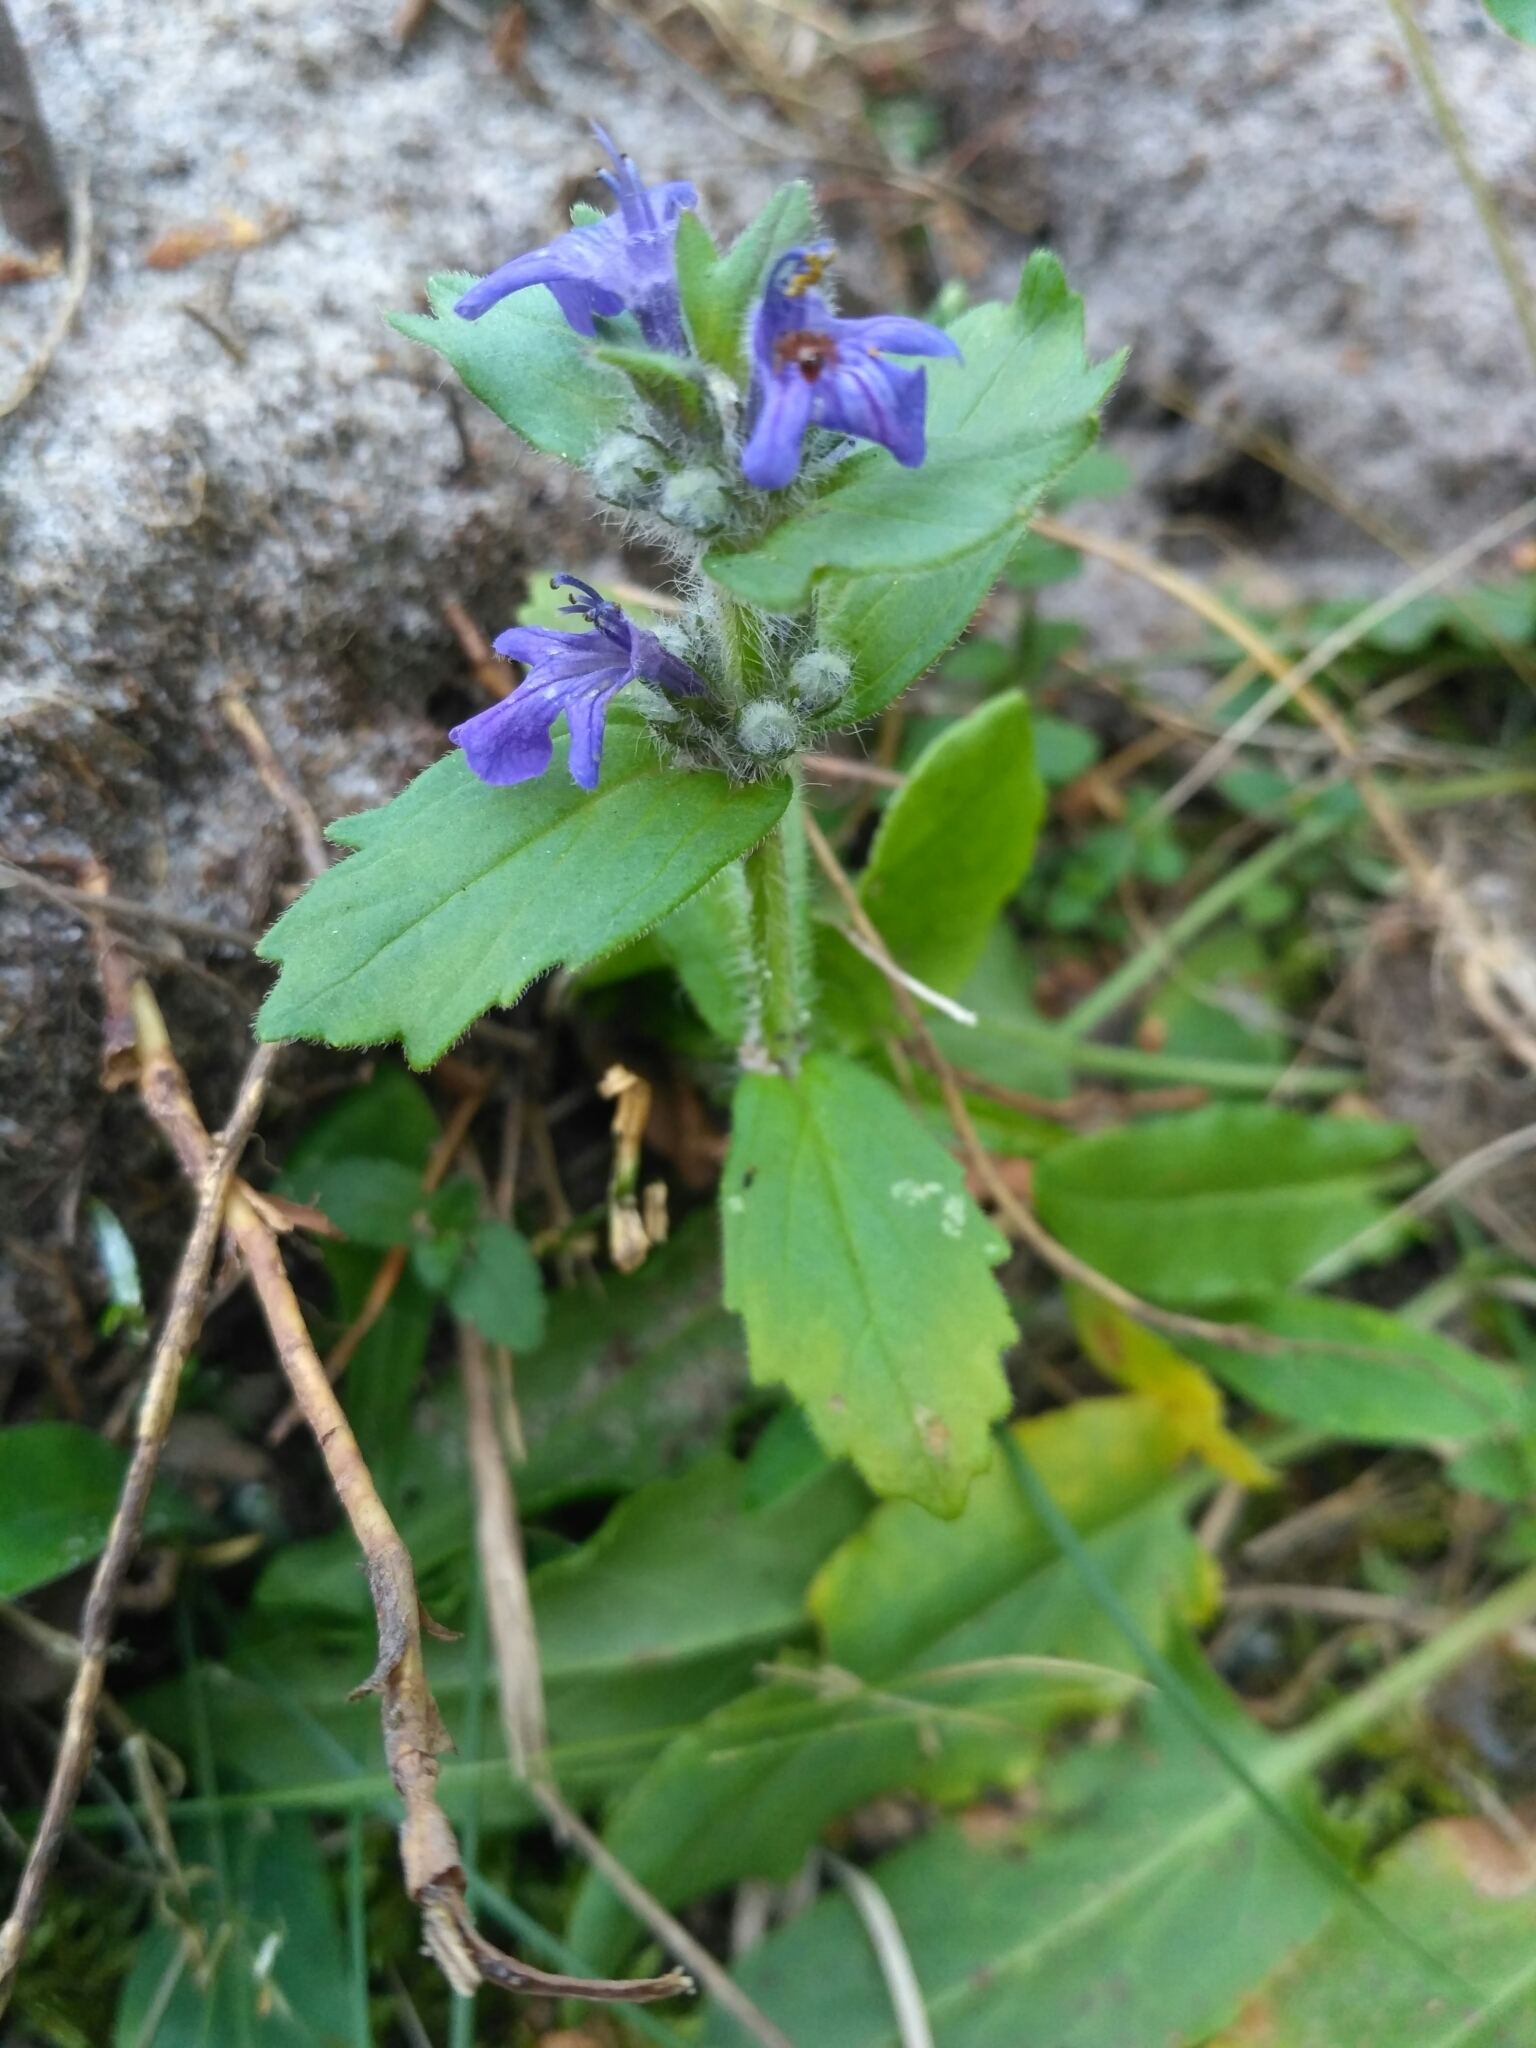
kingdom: Plantae
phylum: Tracheophyta
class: Magnoliopsida
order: Lamiales
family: Lamiaceae
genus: Ajuga
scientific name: Ajuga genevensis
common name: Blue bugle
